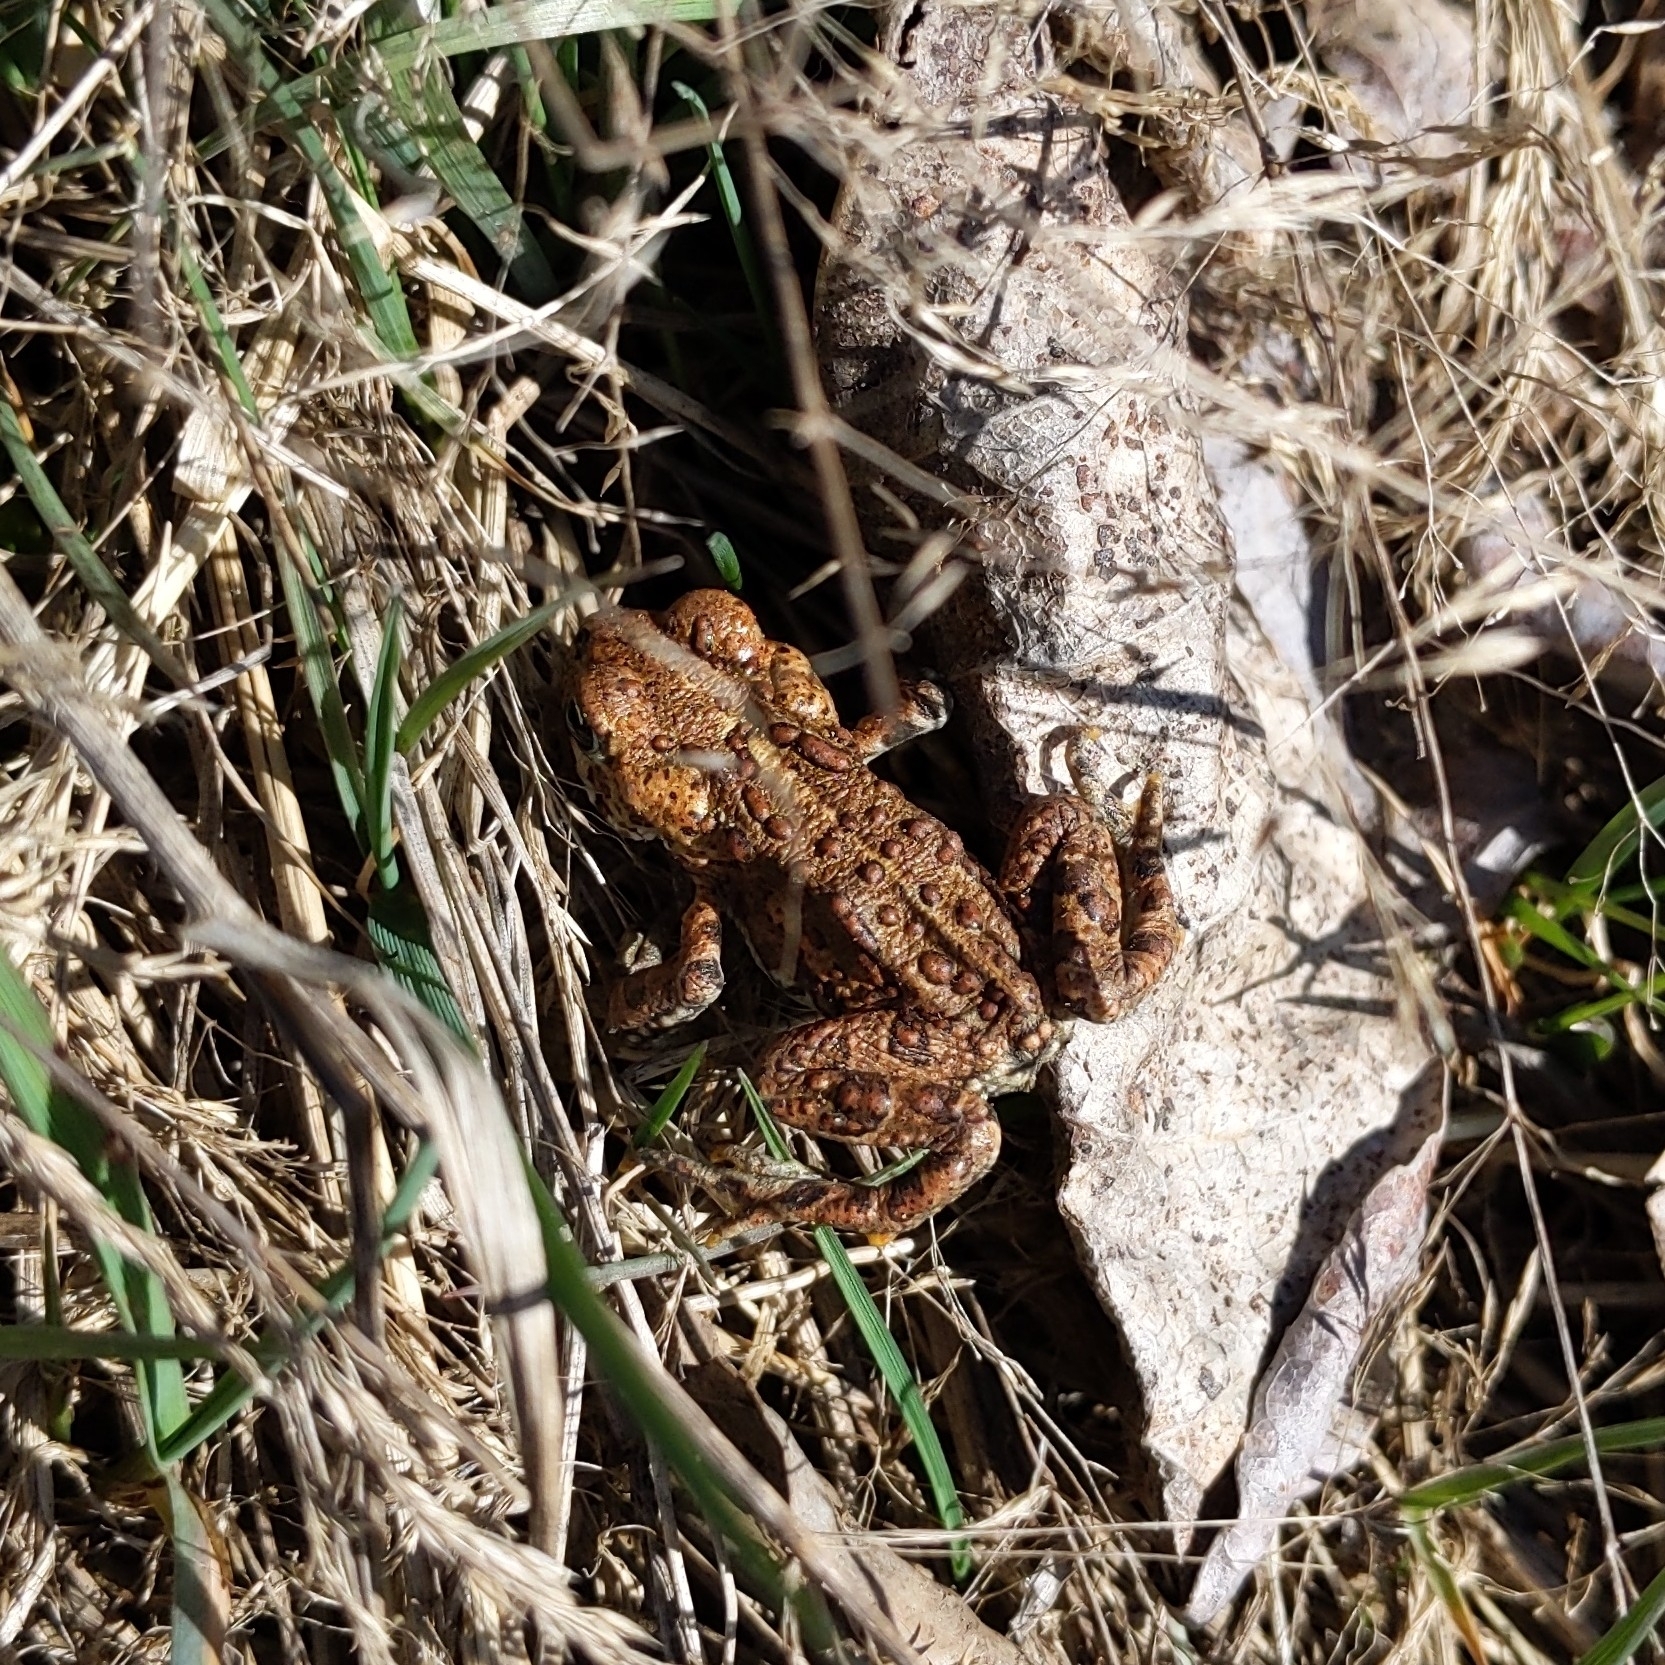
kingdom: Animalia
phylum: Chordata
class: Amphibia
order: Anura
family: Bufonidae
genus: Anaxyrus
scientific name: Anaxyrus boreas
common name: Western toad
